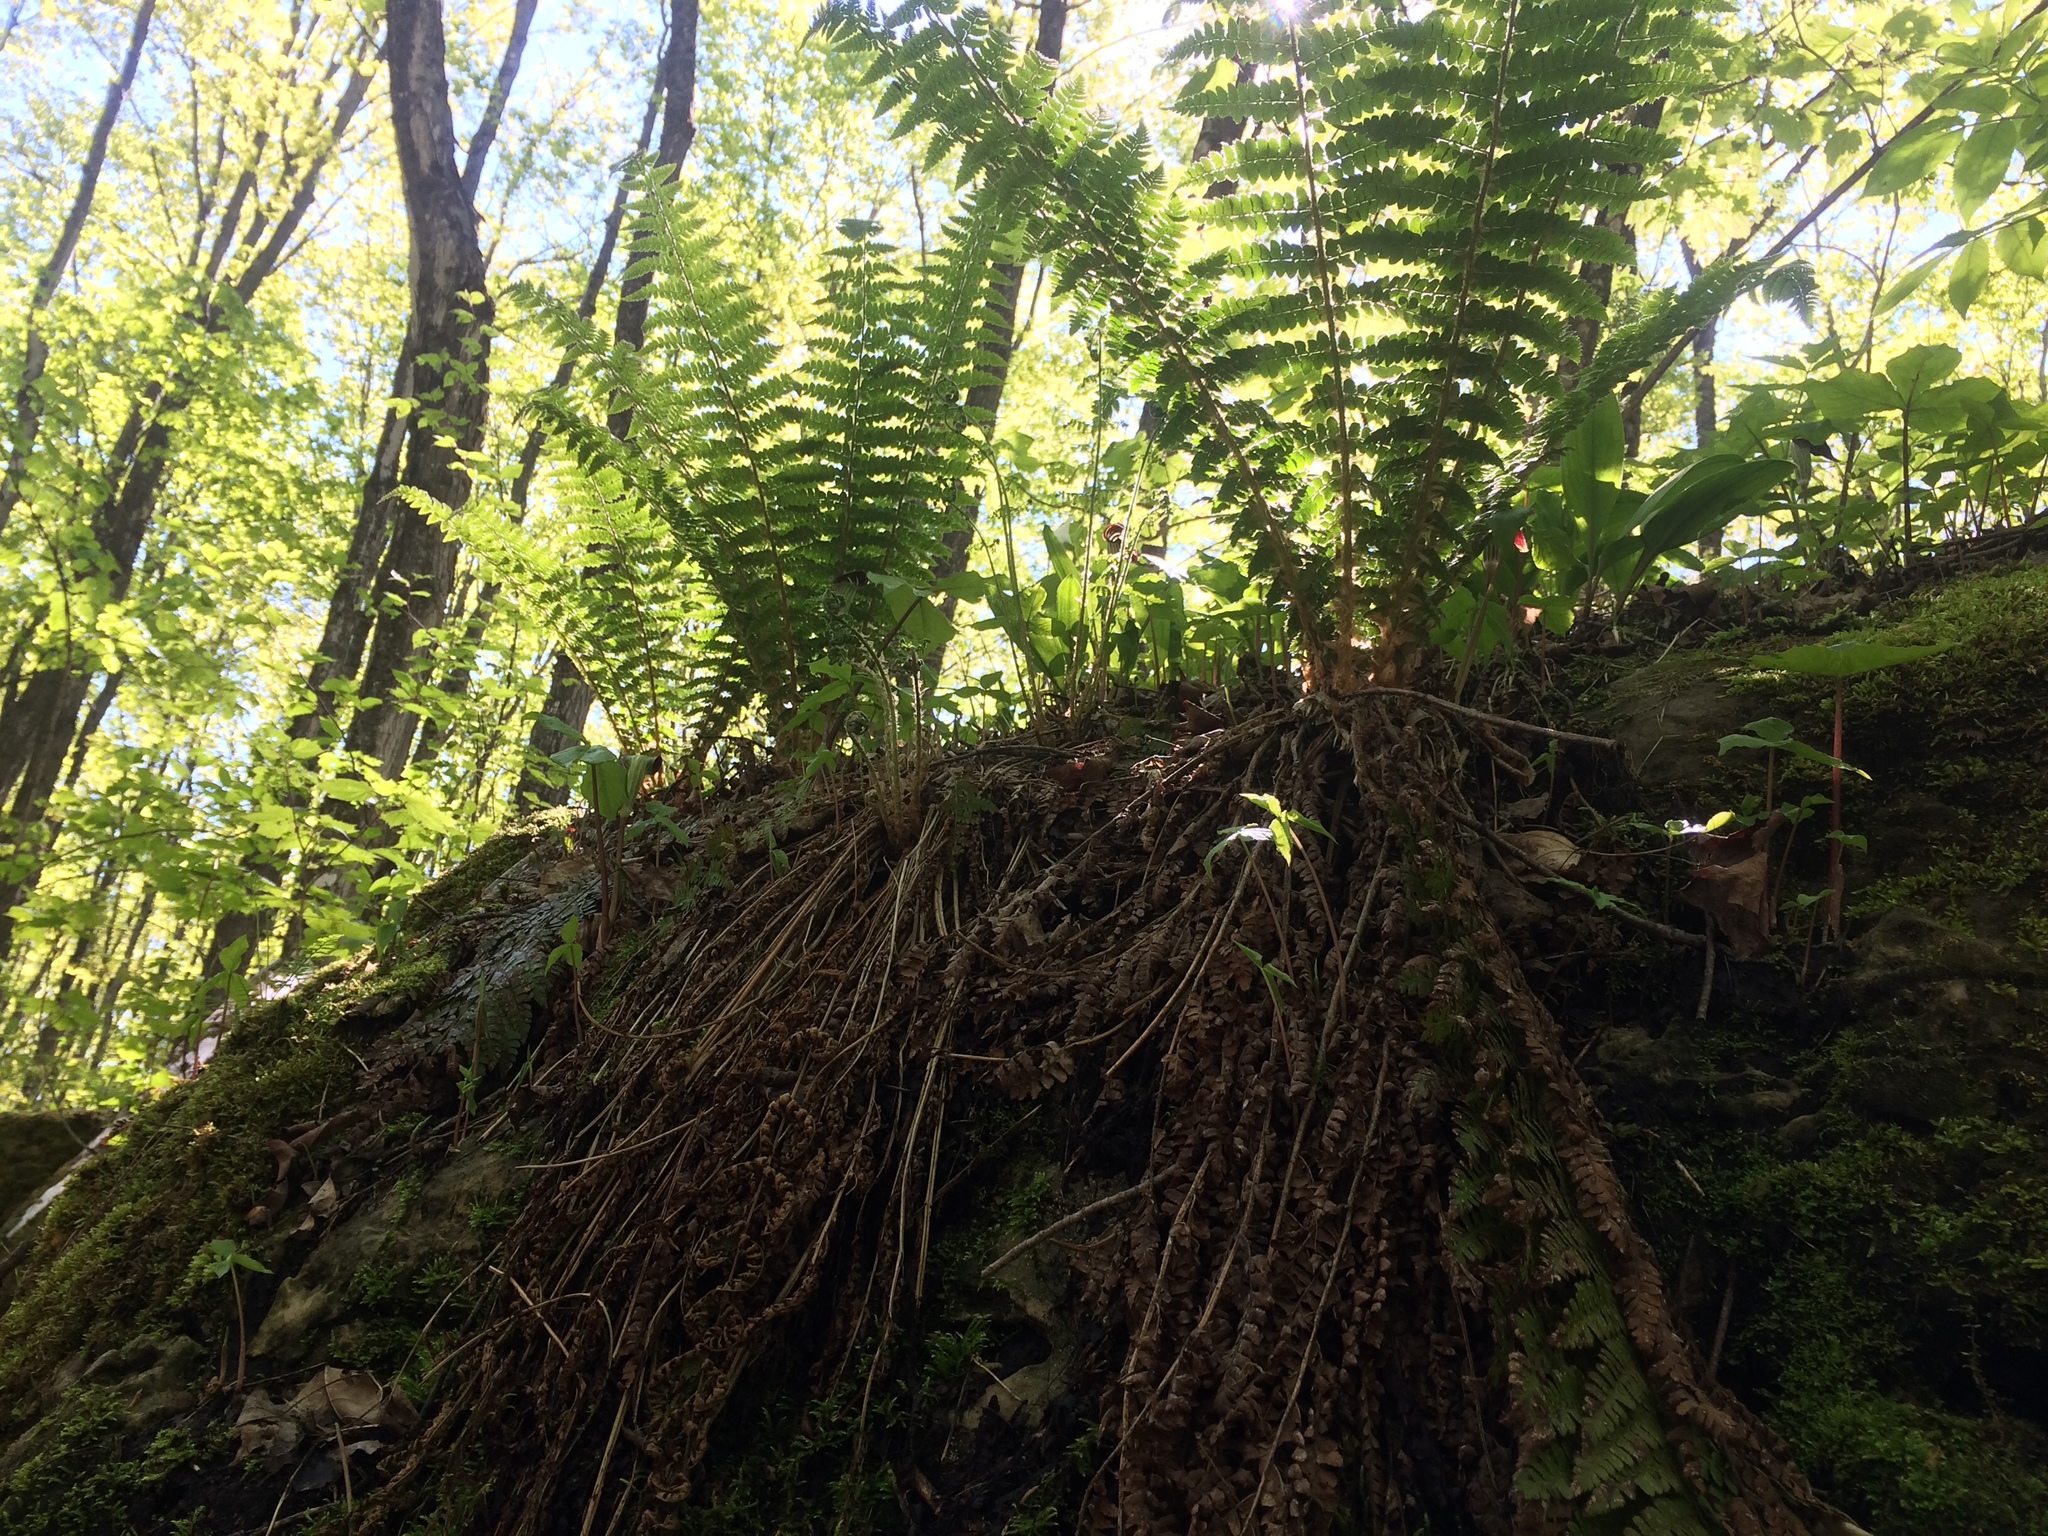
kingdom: Plantae
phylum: Tracheophyta
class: Polypodiopsida
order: Polypodiales
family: Dryopteridaceae
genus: Polystichum
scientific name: Polystichum braunii
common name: Braun's holly fern
